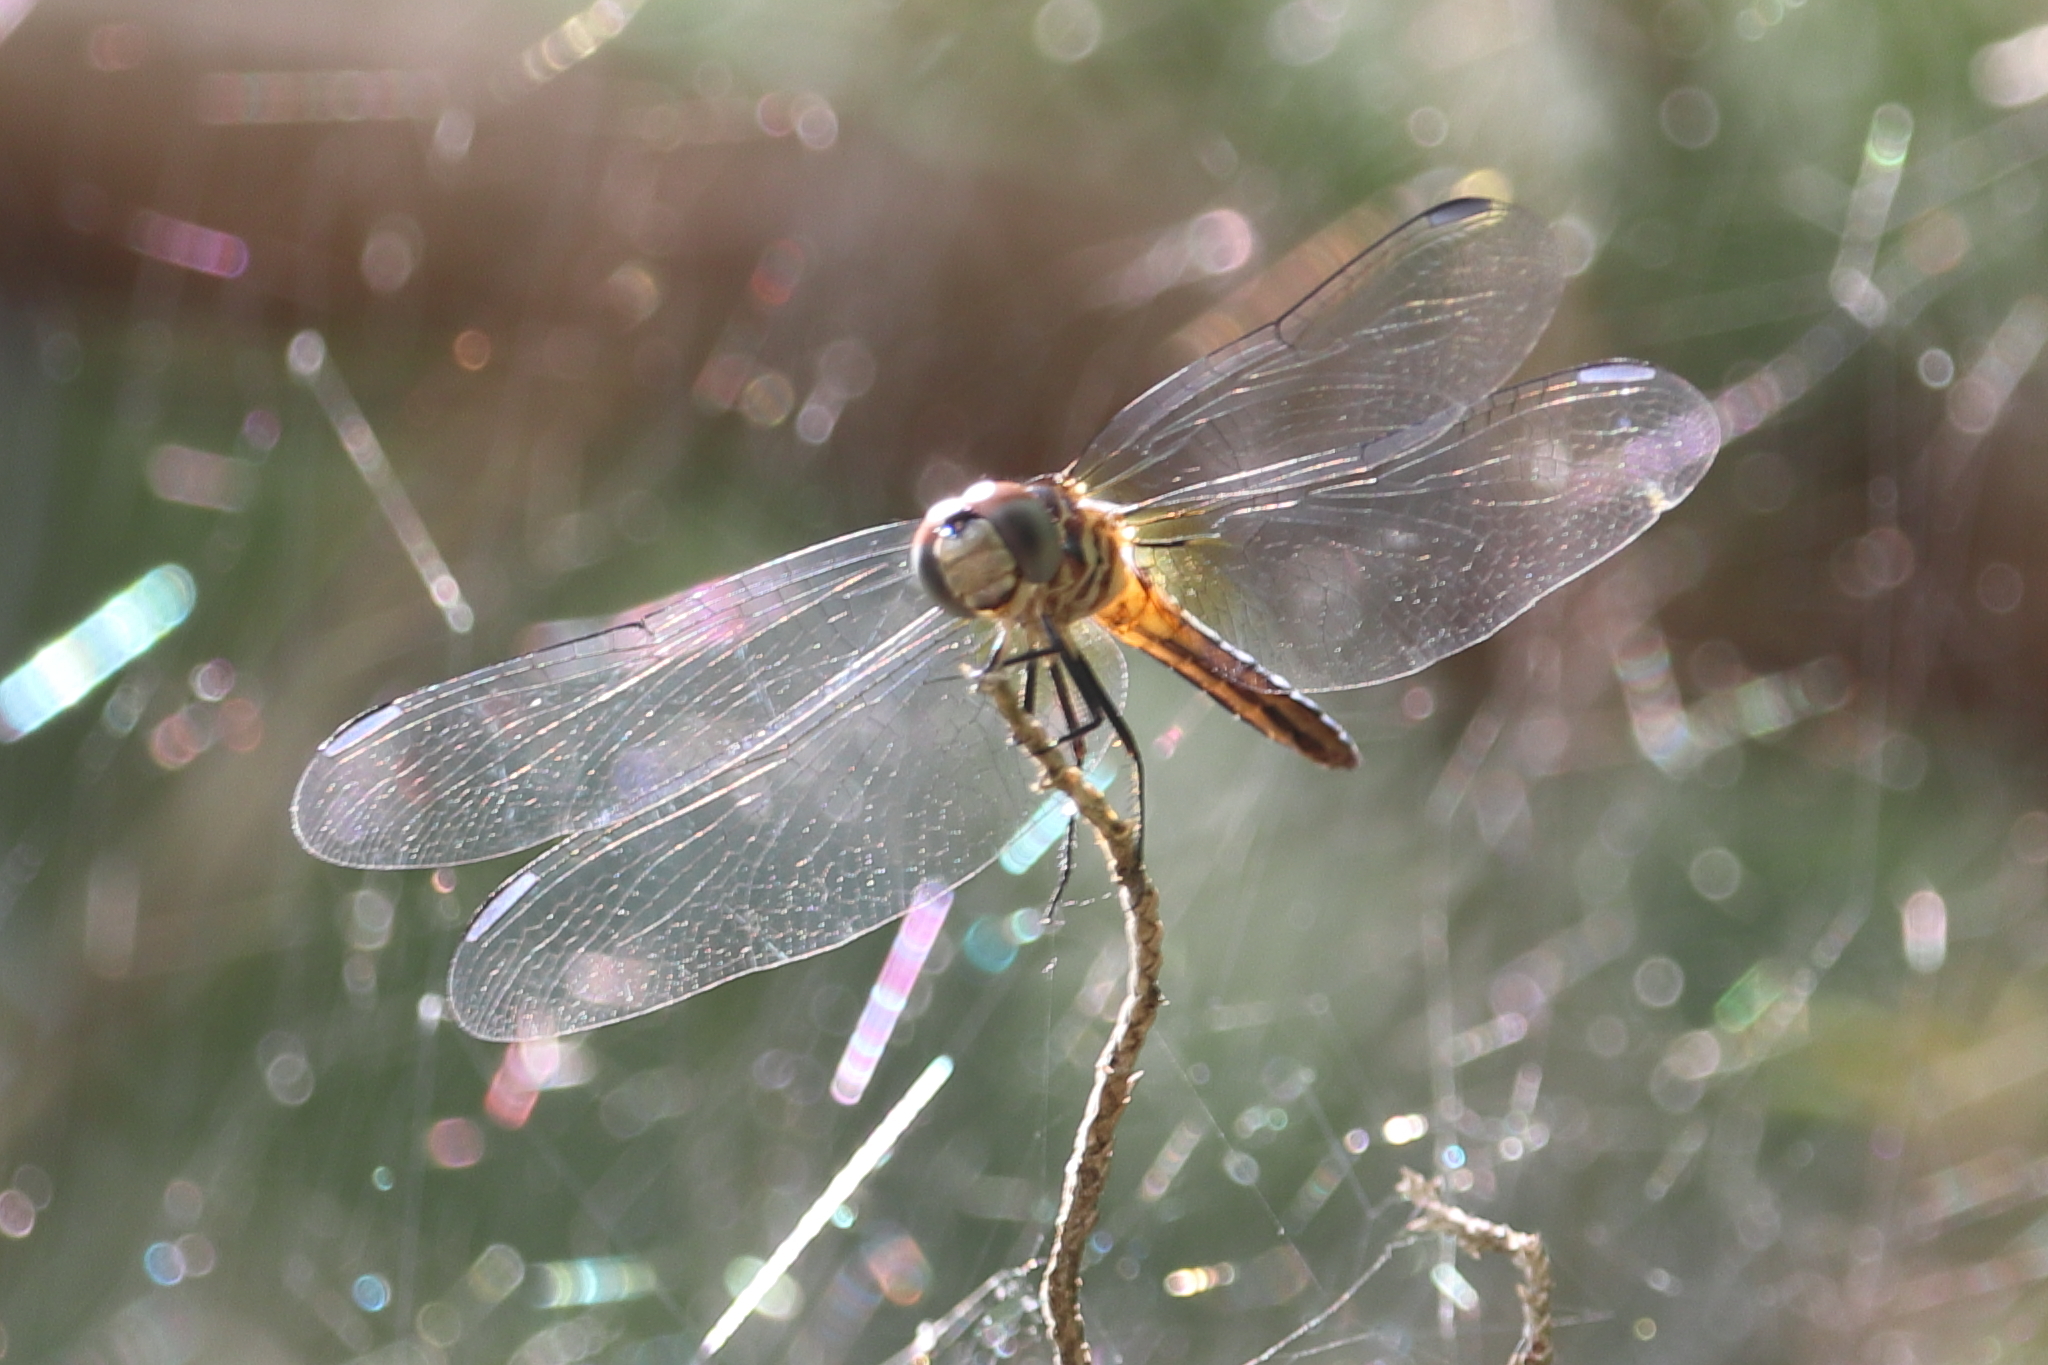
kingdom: Animalia
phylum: Arthropoda
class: Insecta
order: Odonata
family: Libellulidae
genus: Pachydiplax
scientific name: Pachydiplax longipennis
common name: Blue dasher
